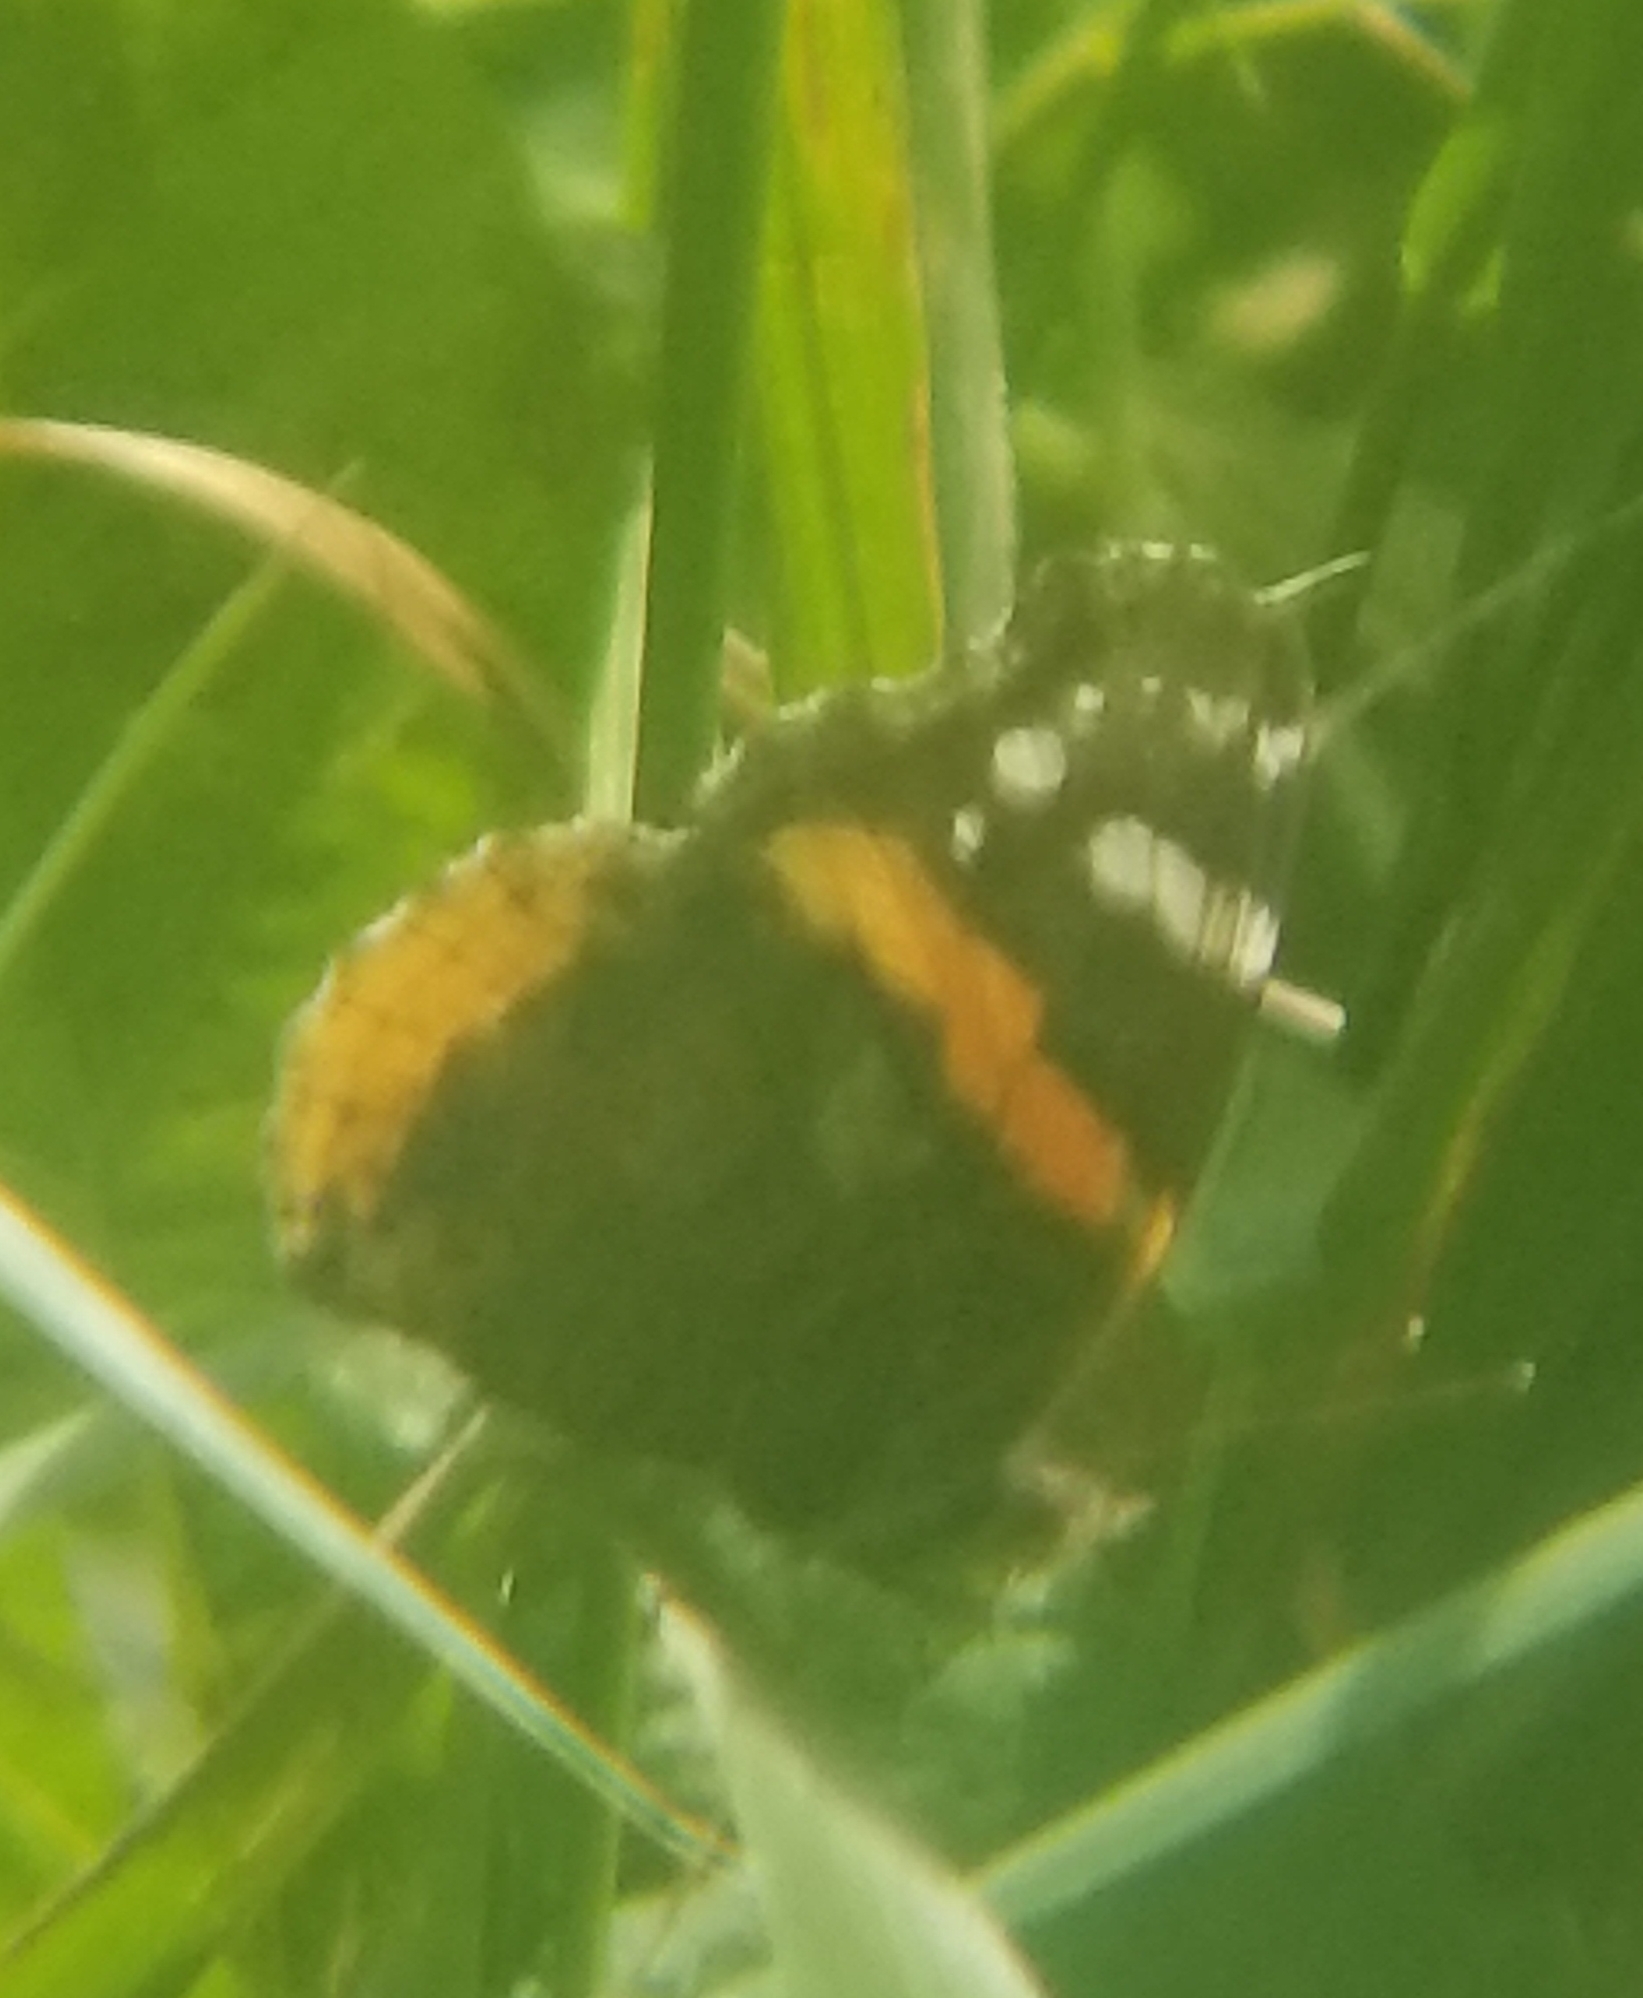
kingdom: Animalia
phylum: Arthropoda
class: Insecta
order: Lepidoptera
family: Nymphalidae
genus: Vanessa
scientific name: Vanessa atalanta
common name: Red admiral
